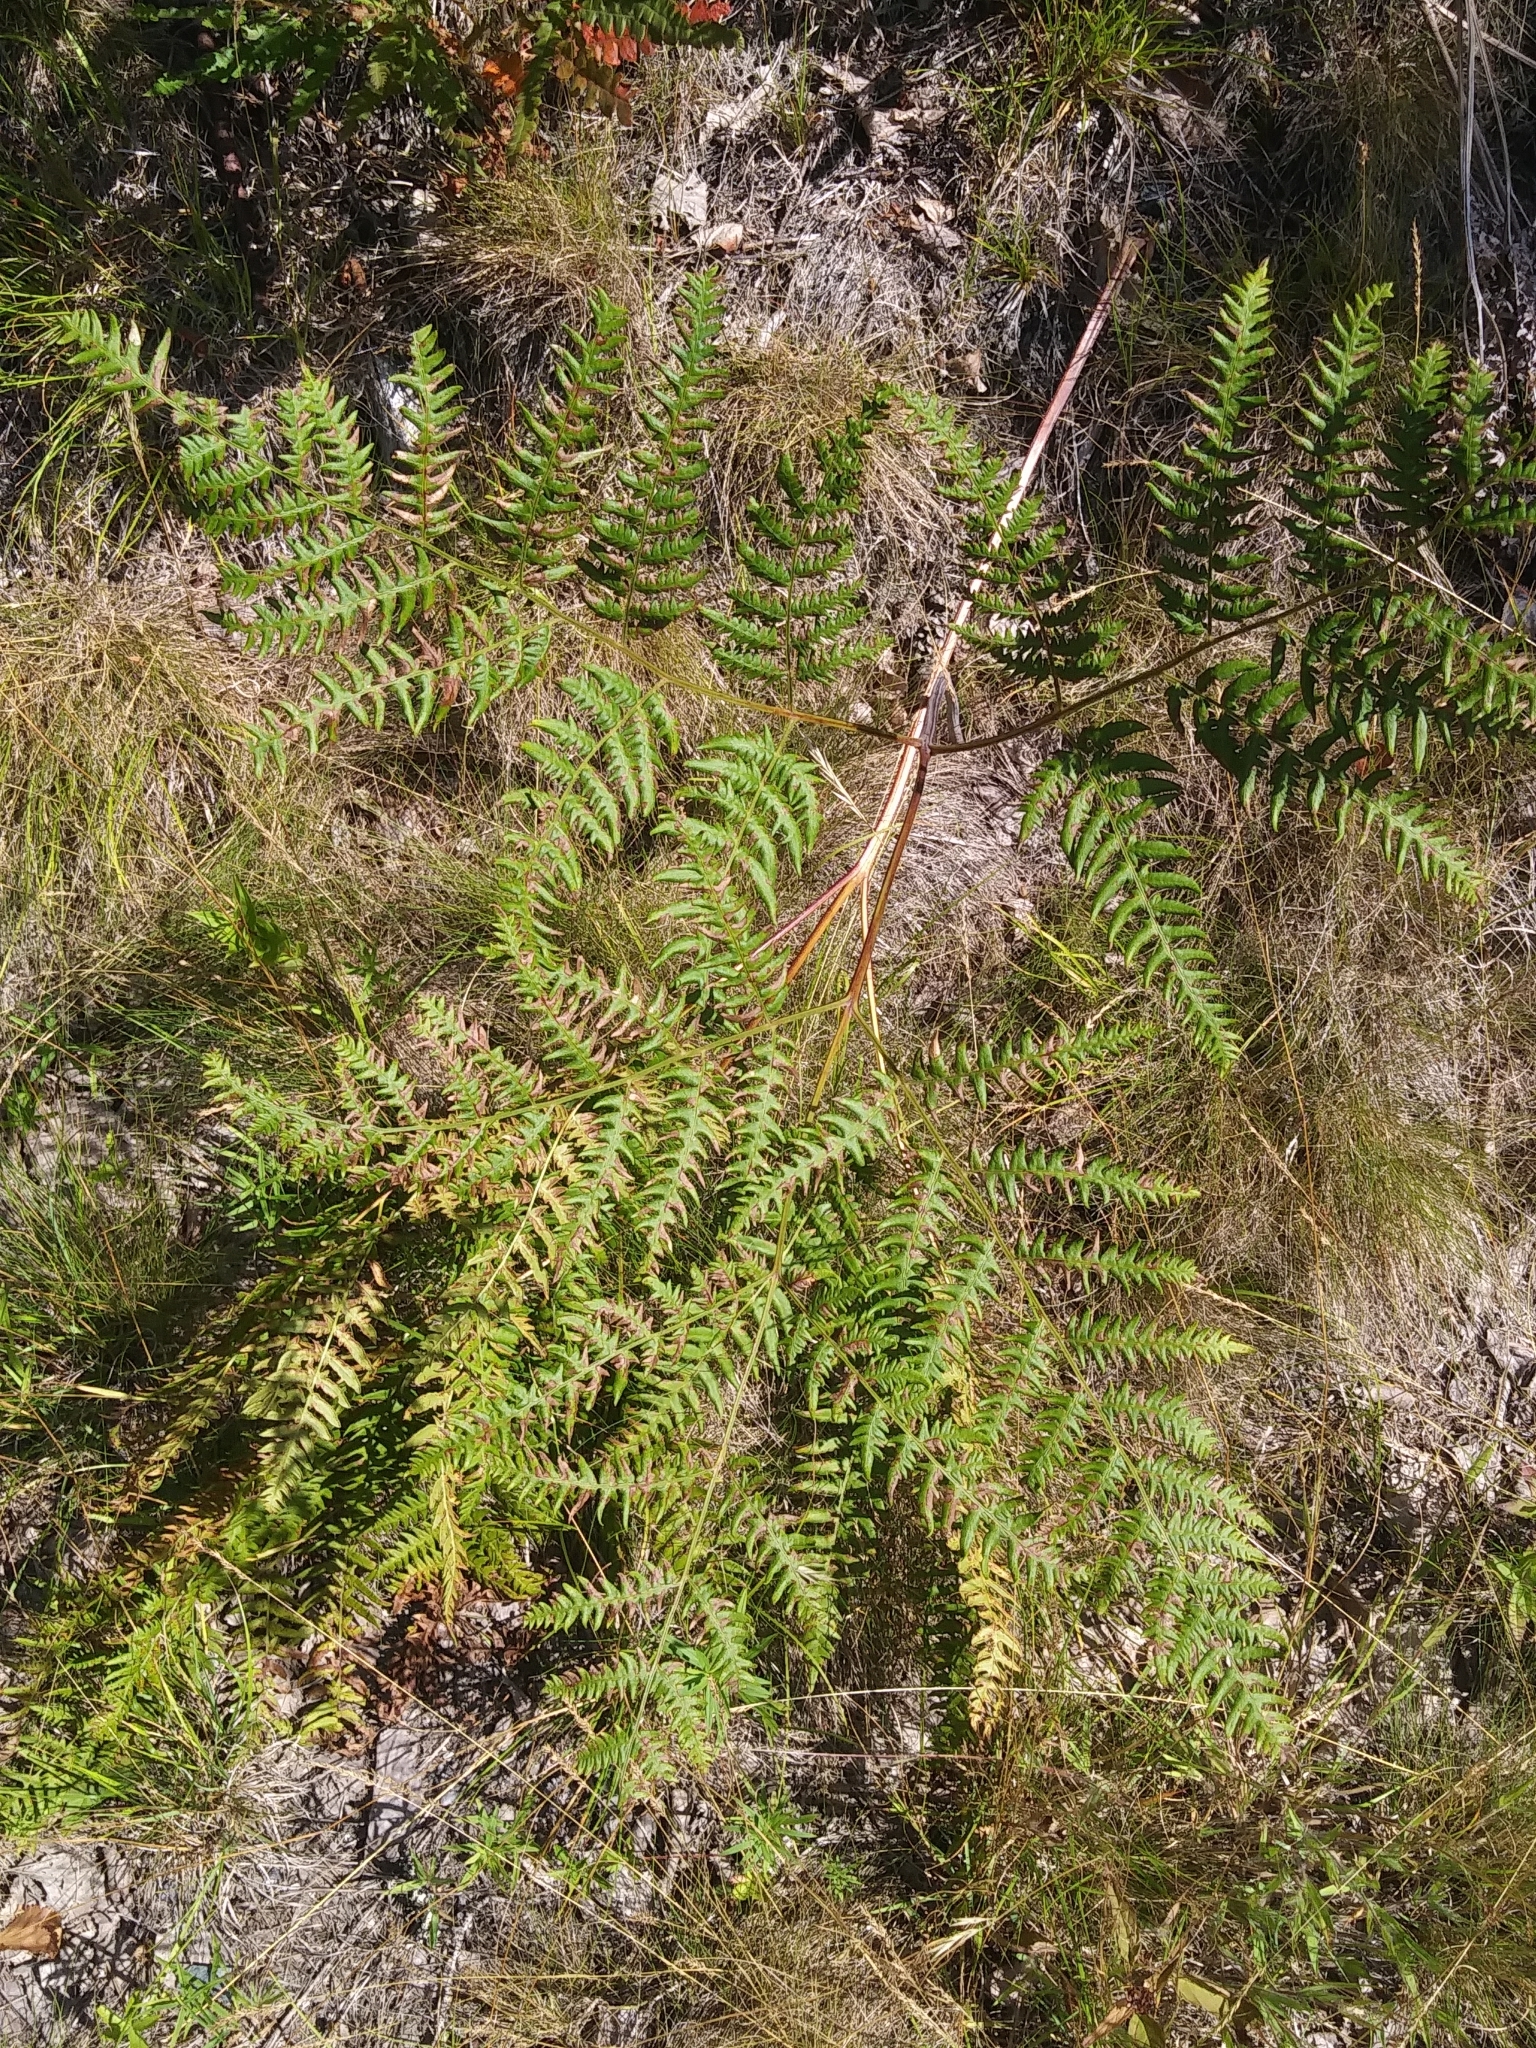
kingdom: Plantae
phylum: Tracheophyta
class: Polypodiopsida
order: Polypodiales
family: Dennstaedtiaceae
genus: Pteridium
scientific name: Pteridium aquilinum
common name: Bracken
